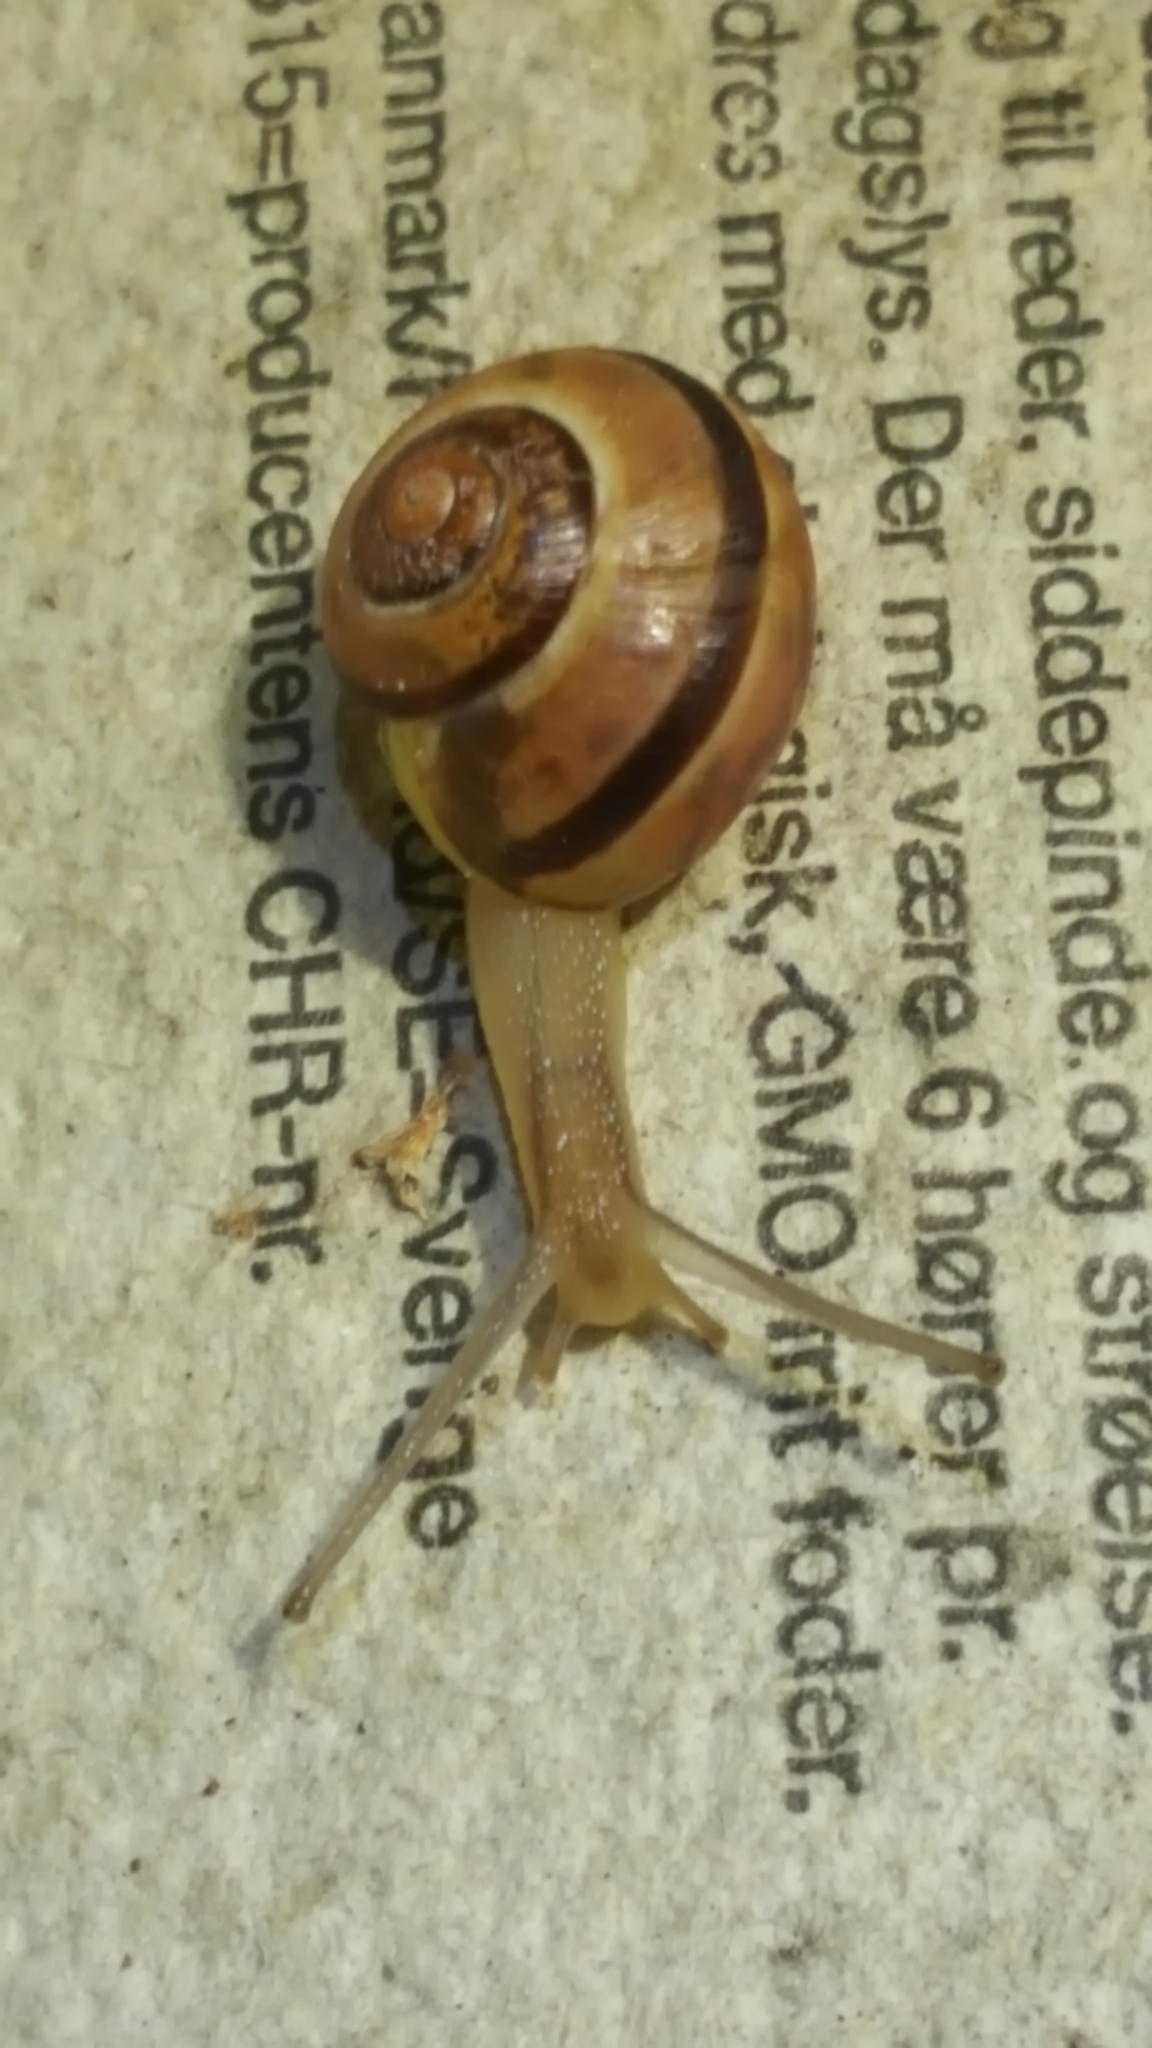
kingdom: Animalia
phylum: Mollusca
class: Gastropoda
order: Stylommatophora
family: Helicidae
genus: Cepaea
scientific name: Cepaea
